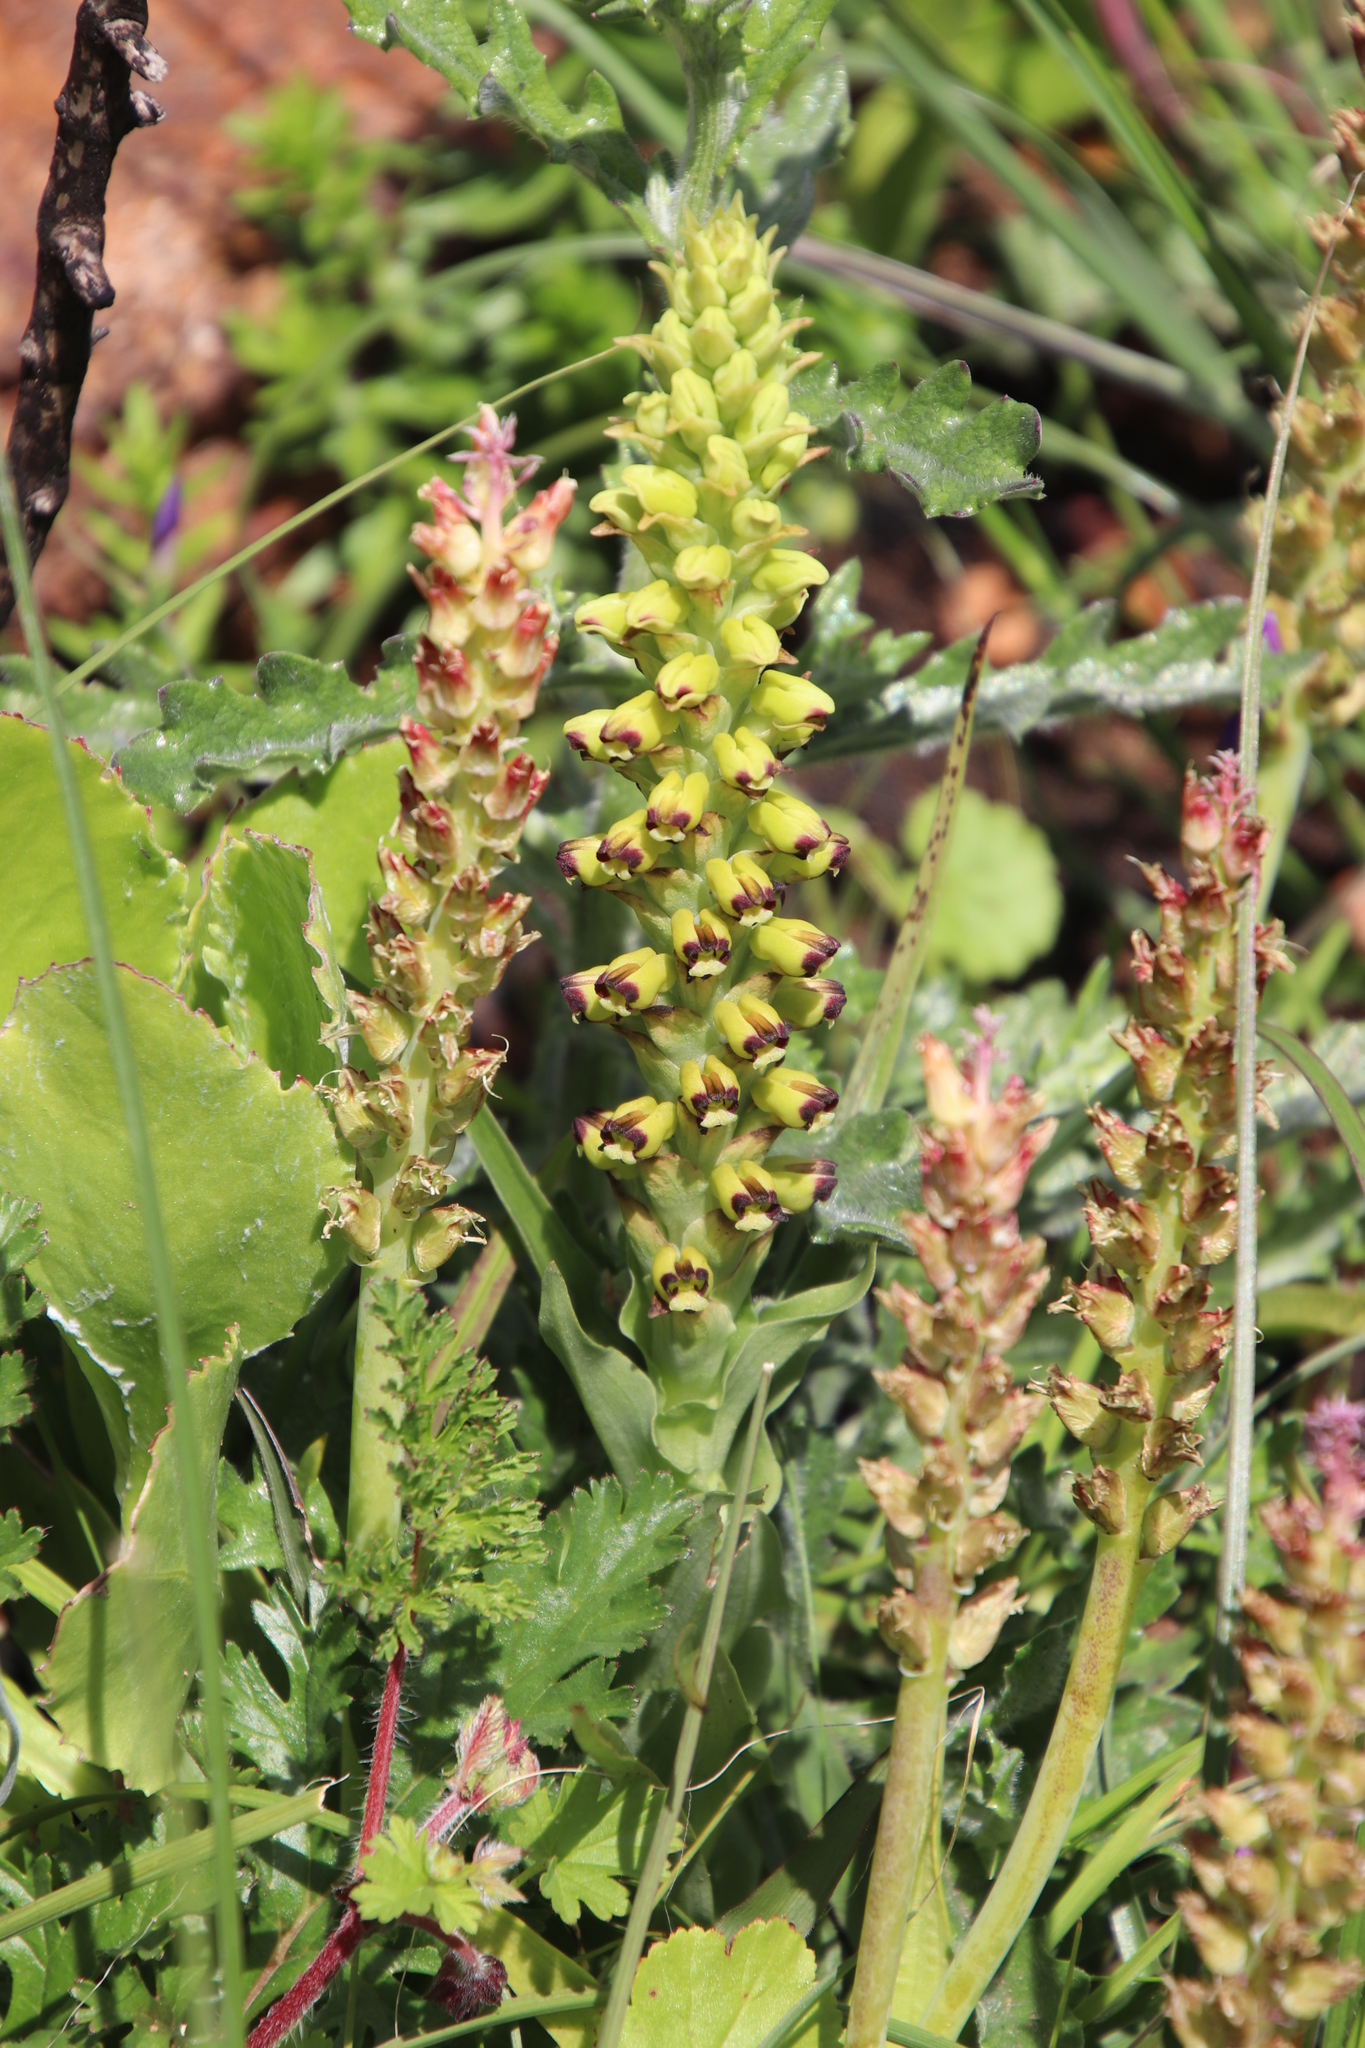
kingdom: Plantae
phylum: Tracheophyta
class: Liliopsida
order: Asparagales
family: Orchidaceae
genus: Corycium
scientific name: Corycium orobanchoides
